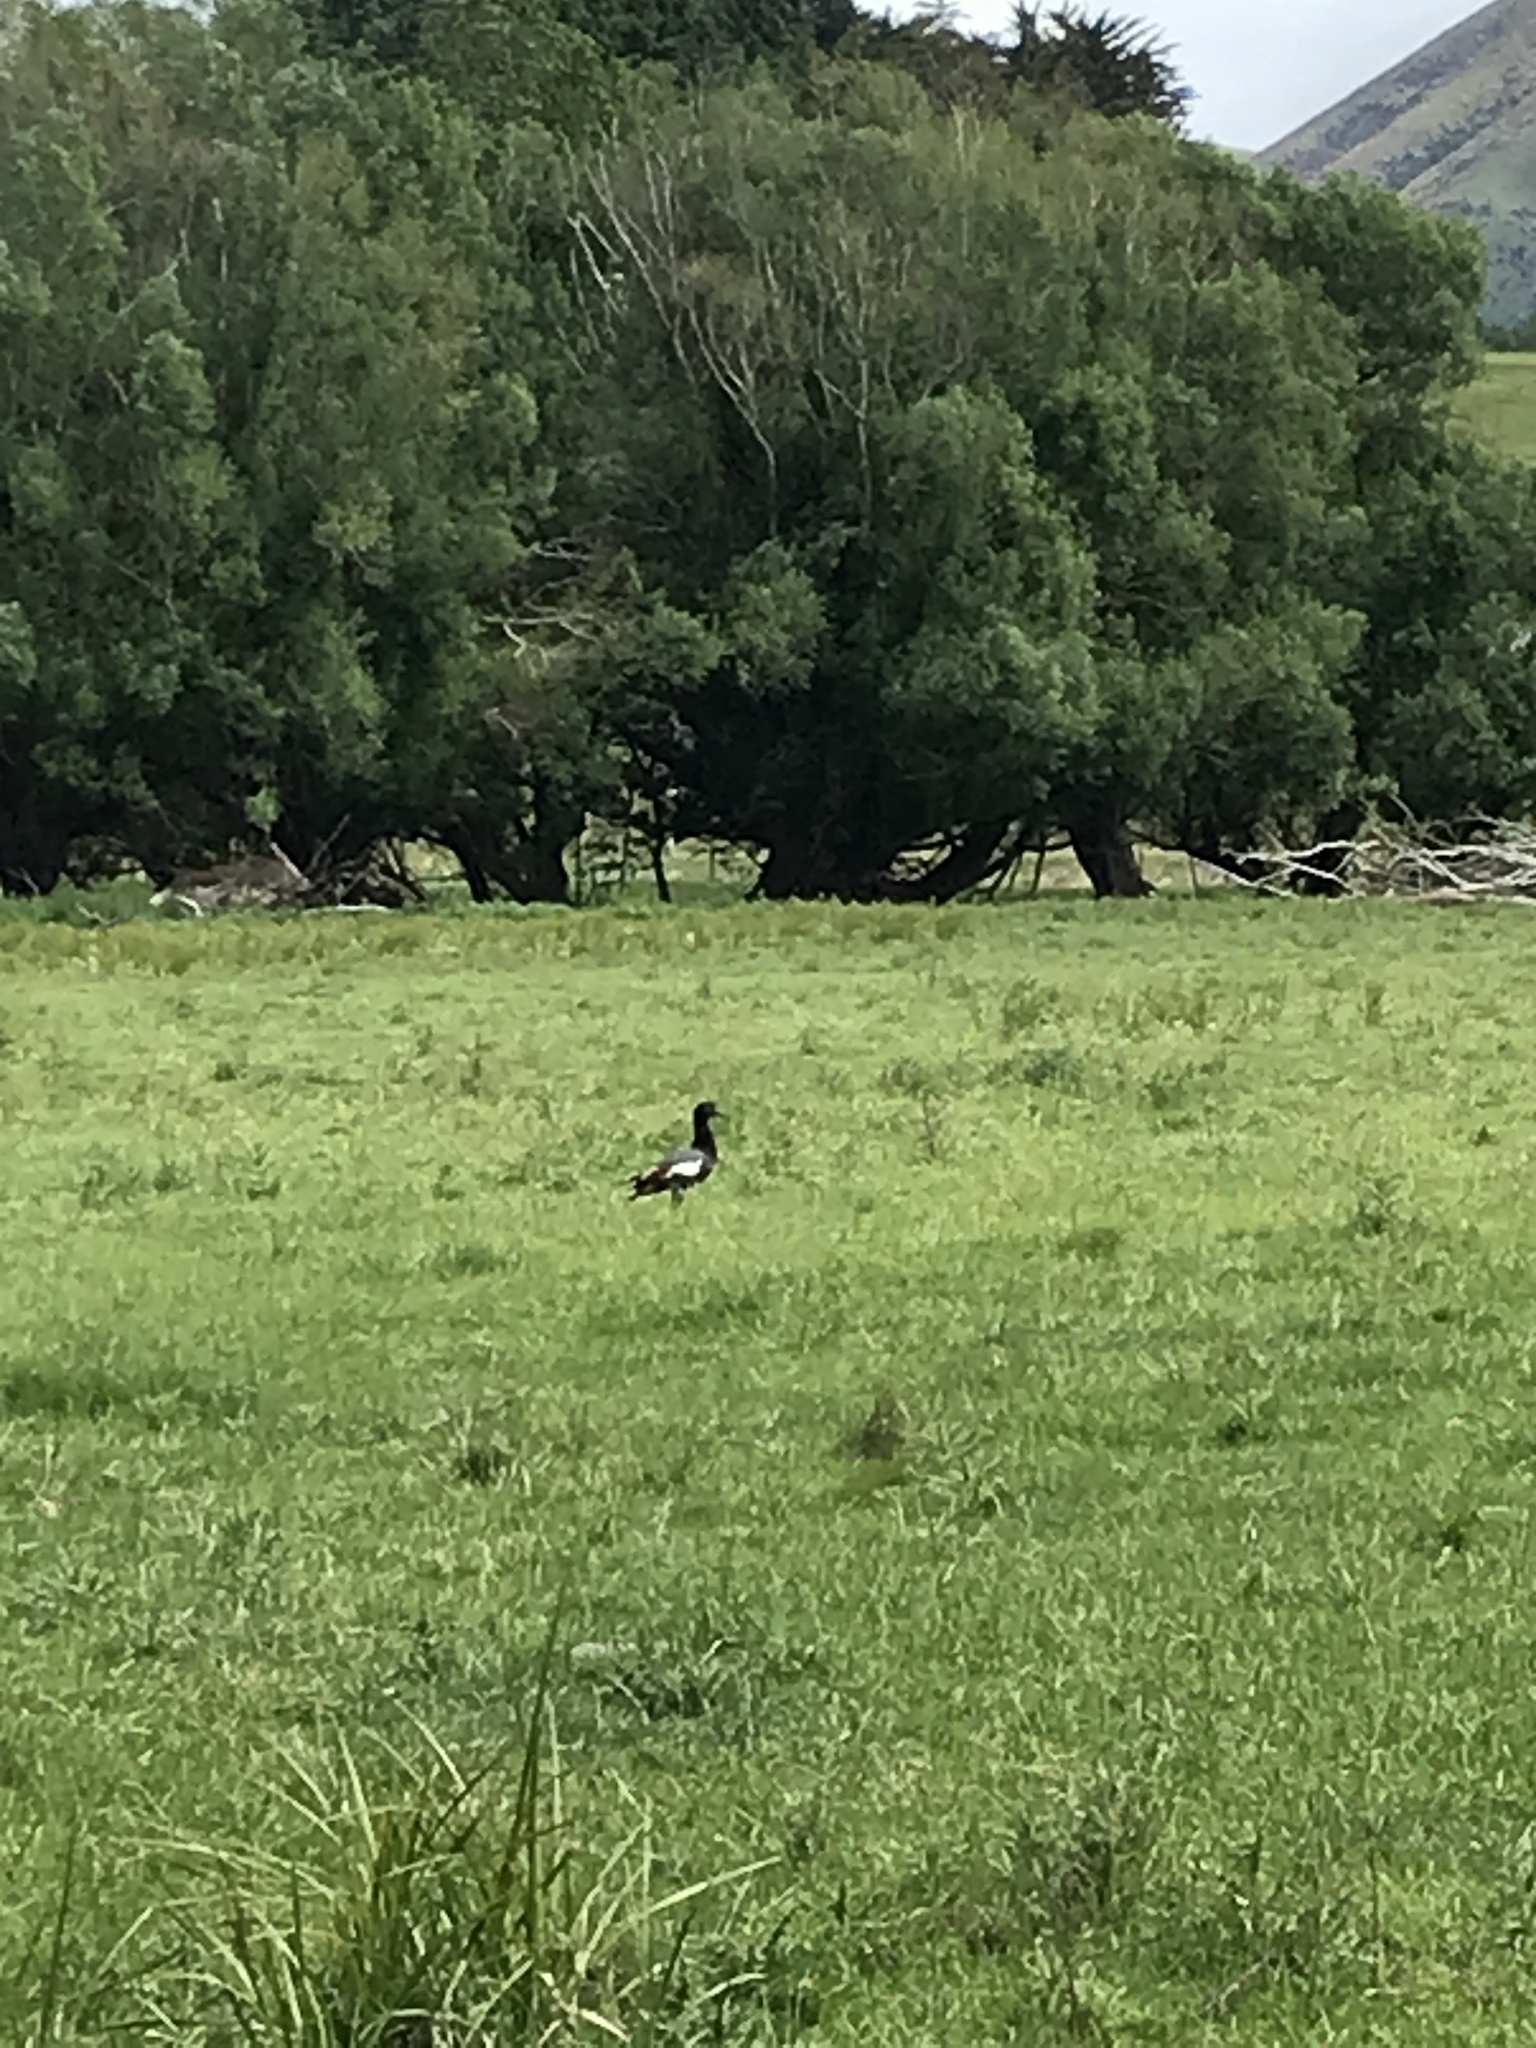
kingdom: Animalia
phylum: Chordata
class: Aves
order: Anseriformes
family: Anatidae
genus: Tadorna
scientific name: Tadorna variegata
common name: Paradise shelduck
